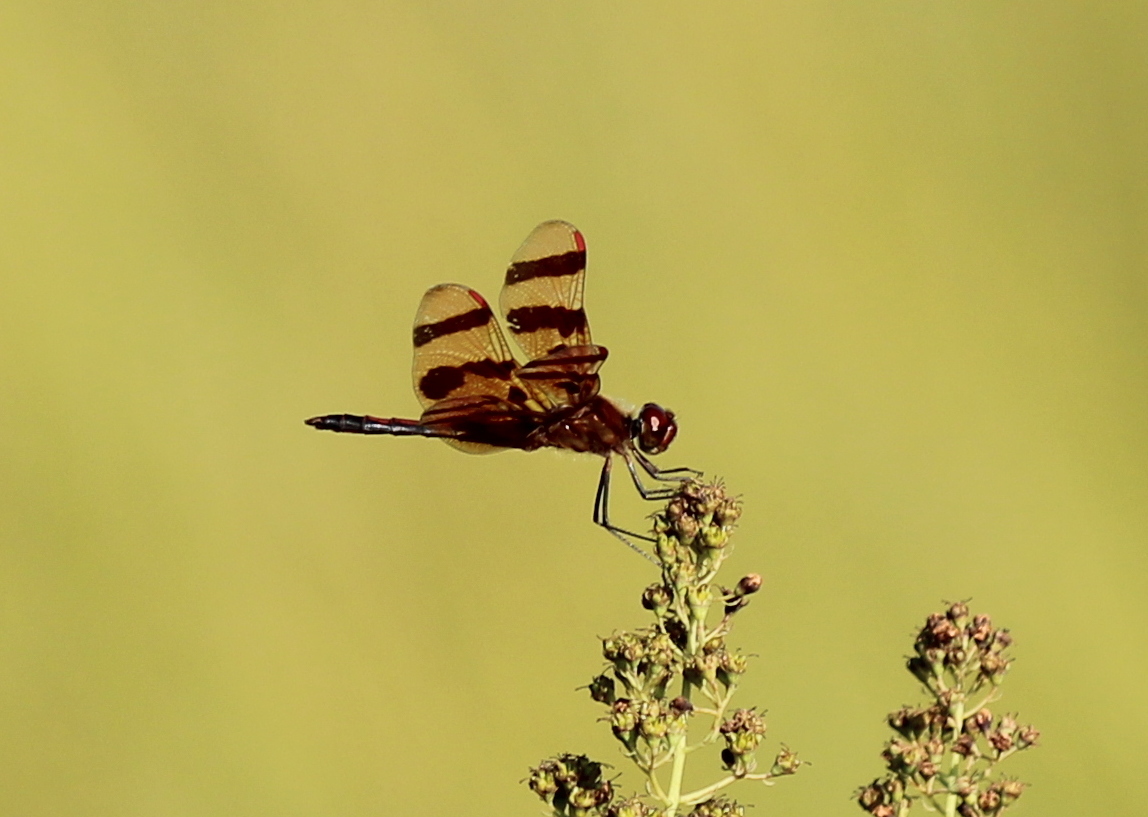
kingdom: Animalia
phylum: Arthropoda
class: Insecta
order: Odonata
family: Libellulidae
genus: Celithemis
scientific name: Celithemis eponina
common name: Halloween pennant
